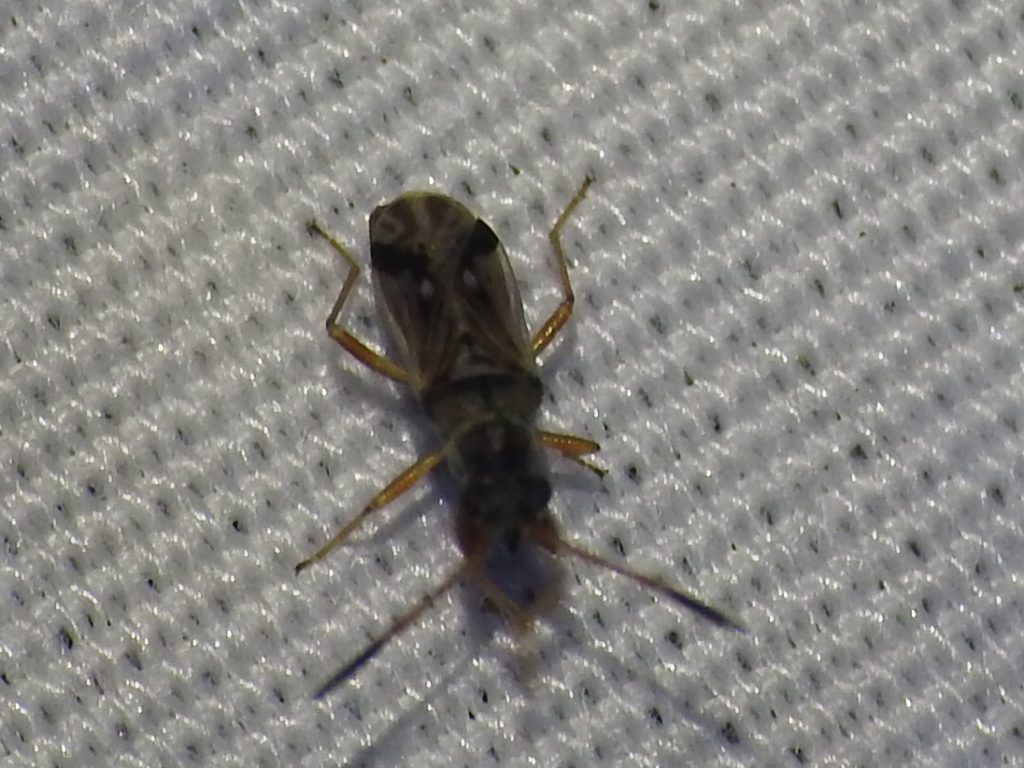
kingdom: Animalia
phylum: Arthropoda
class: Insecta
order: Hemiptera
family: Rhyparochromidae
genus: Pseudopachybrachius
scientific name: Pseudopachybrachius vinctus
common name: Dirt-colored seed bug
